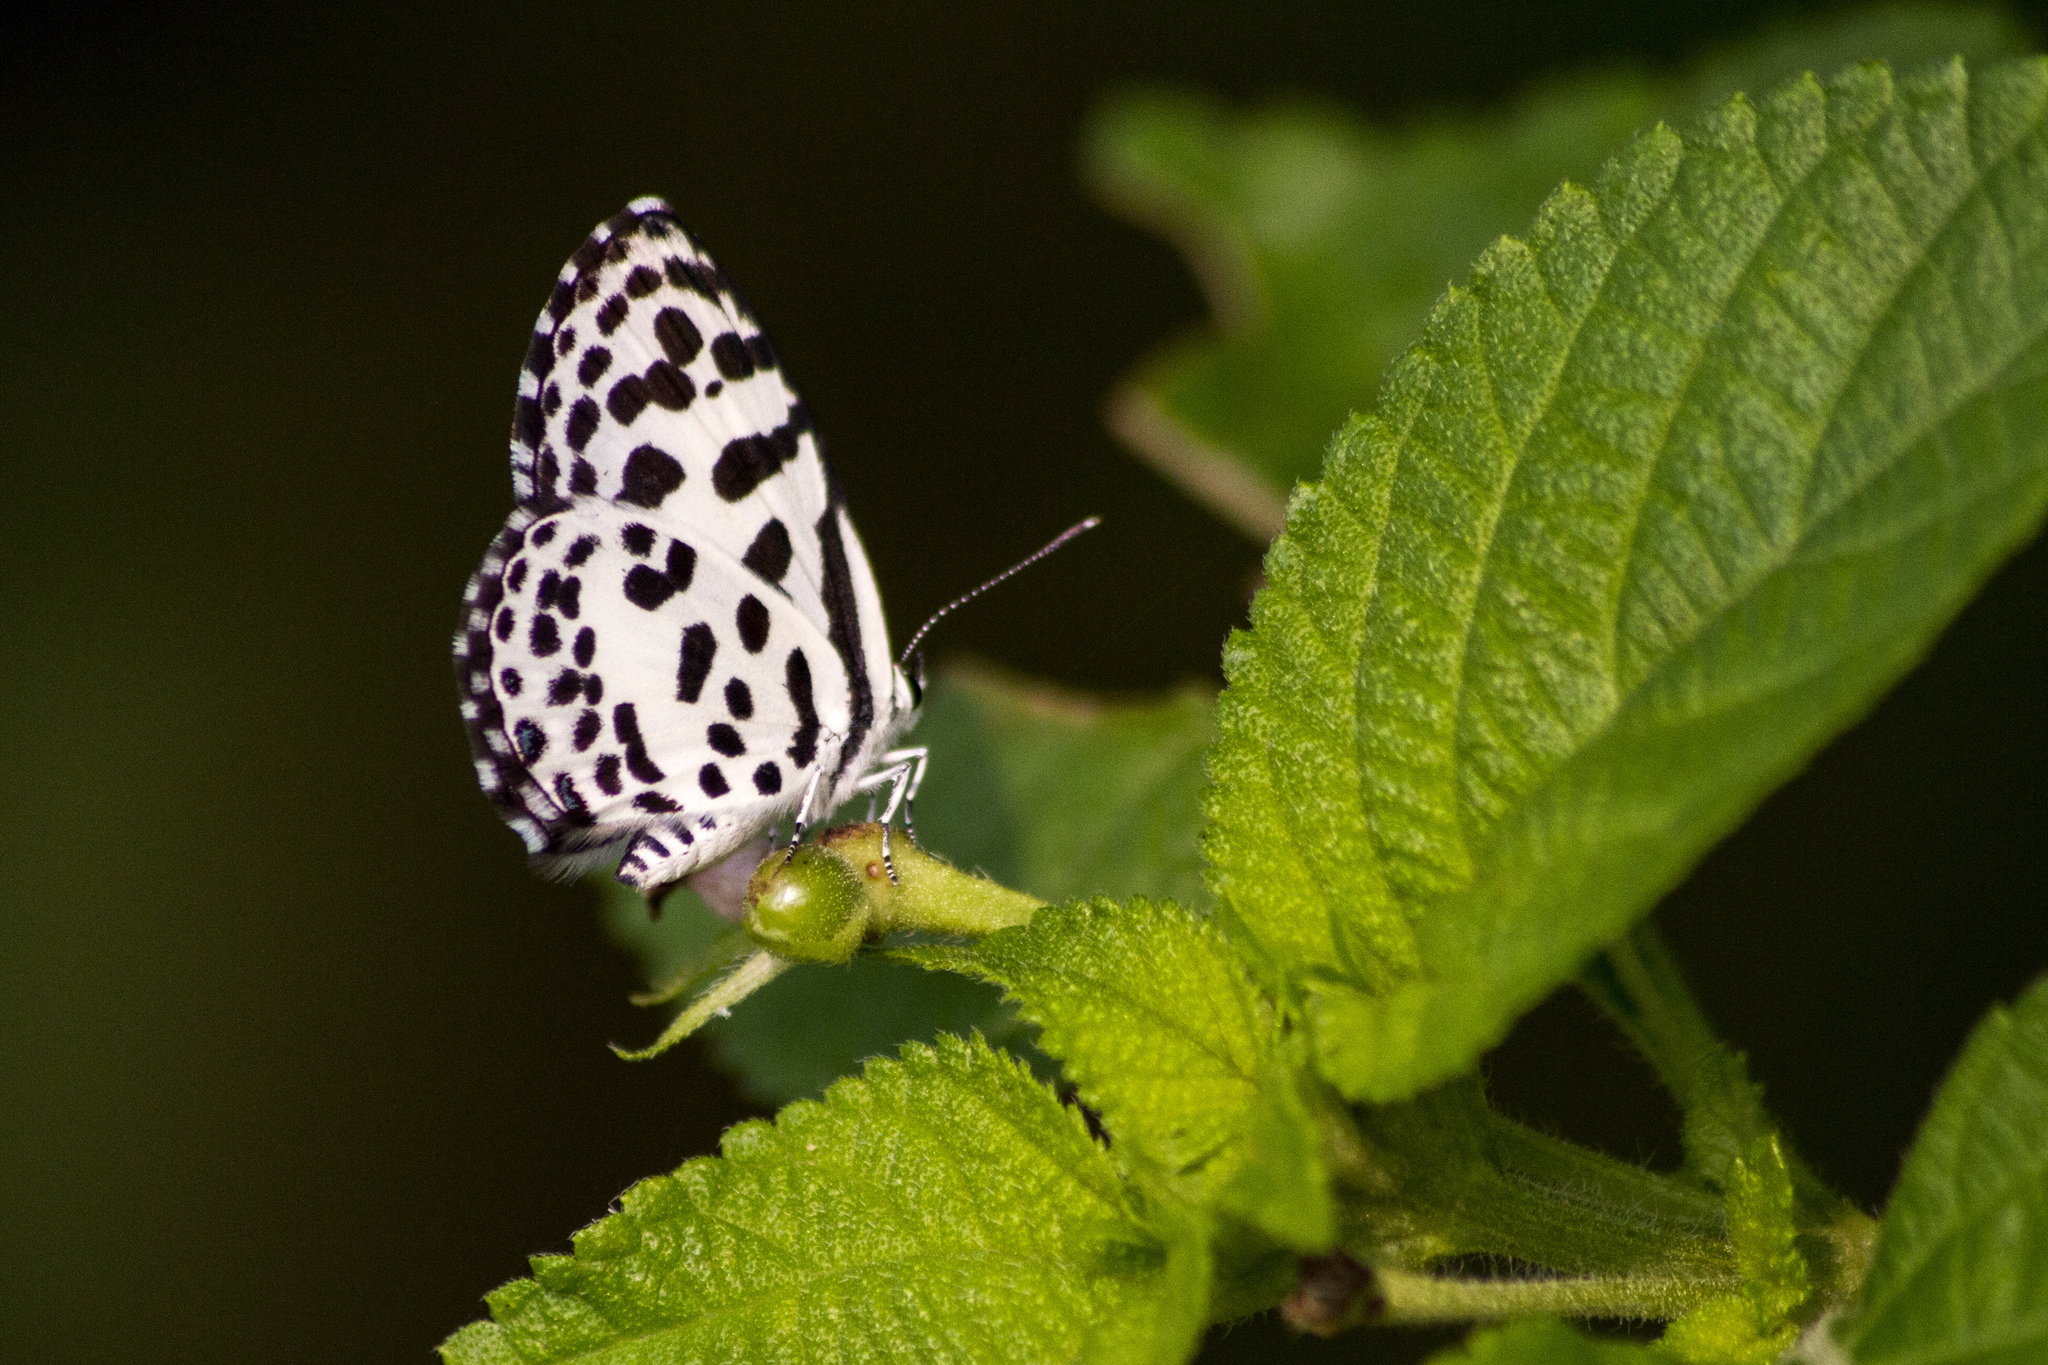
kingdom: Animalia
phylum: Arthropoda
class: Insecta
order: Lepidoptera
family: Lycaenidae
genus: Castalius
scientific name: Castalius rosimon
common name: Common pierrot
